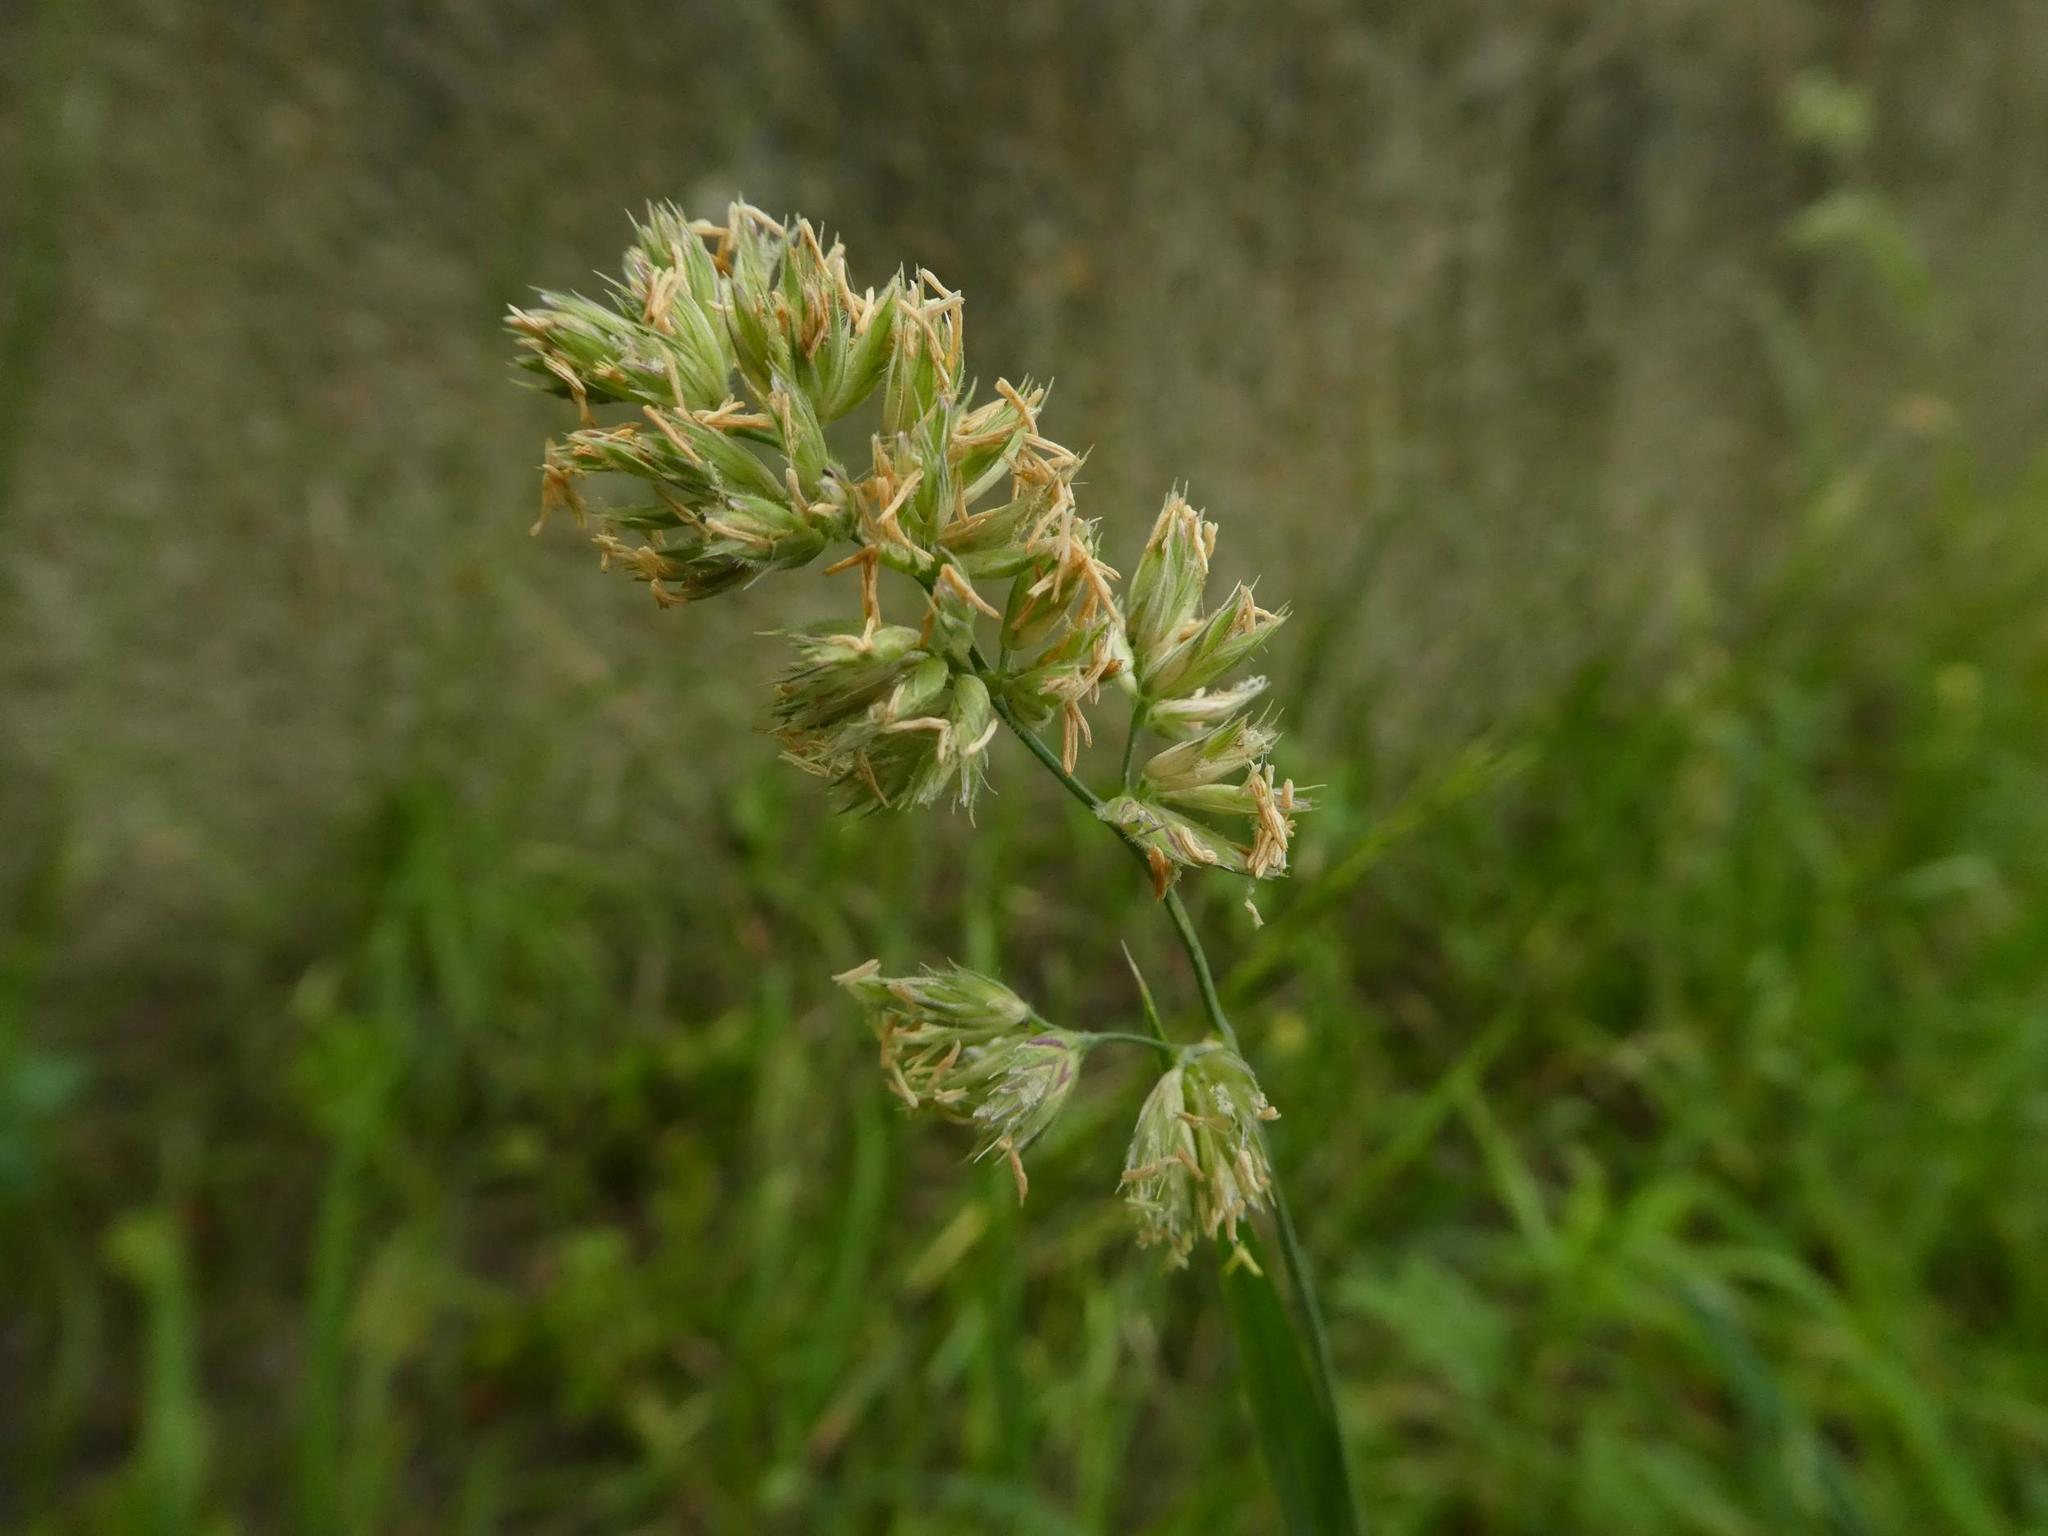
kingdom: Plantae
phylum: Tracheophyta
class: Liliopsida
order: Poales
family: Poaceae
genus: Dactylis
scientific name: Dactylis glomerata
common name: Orchardgrass
